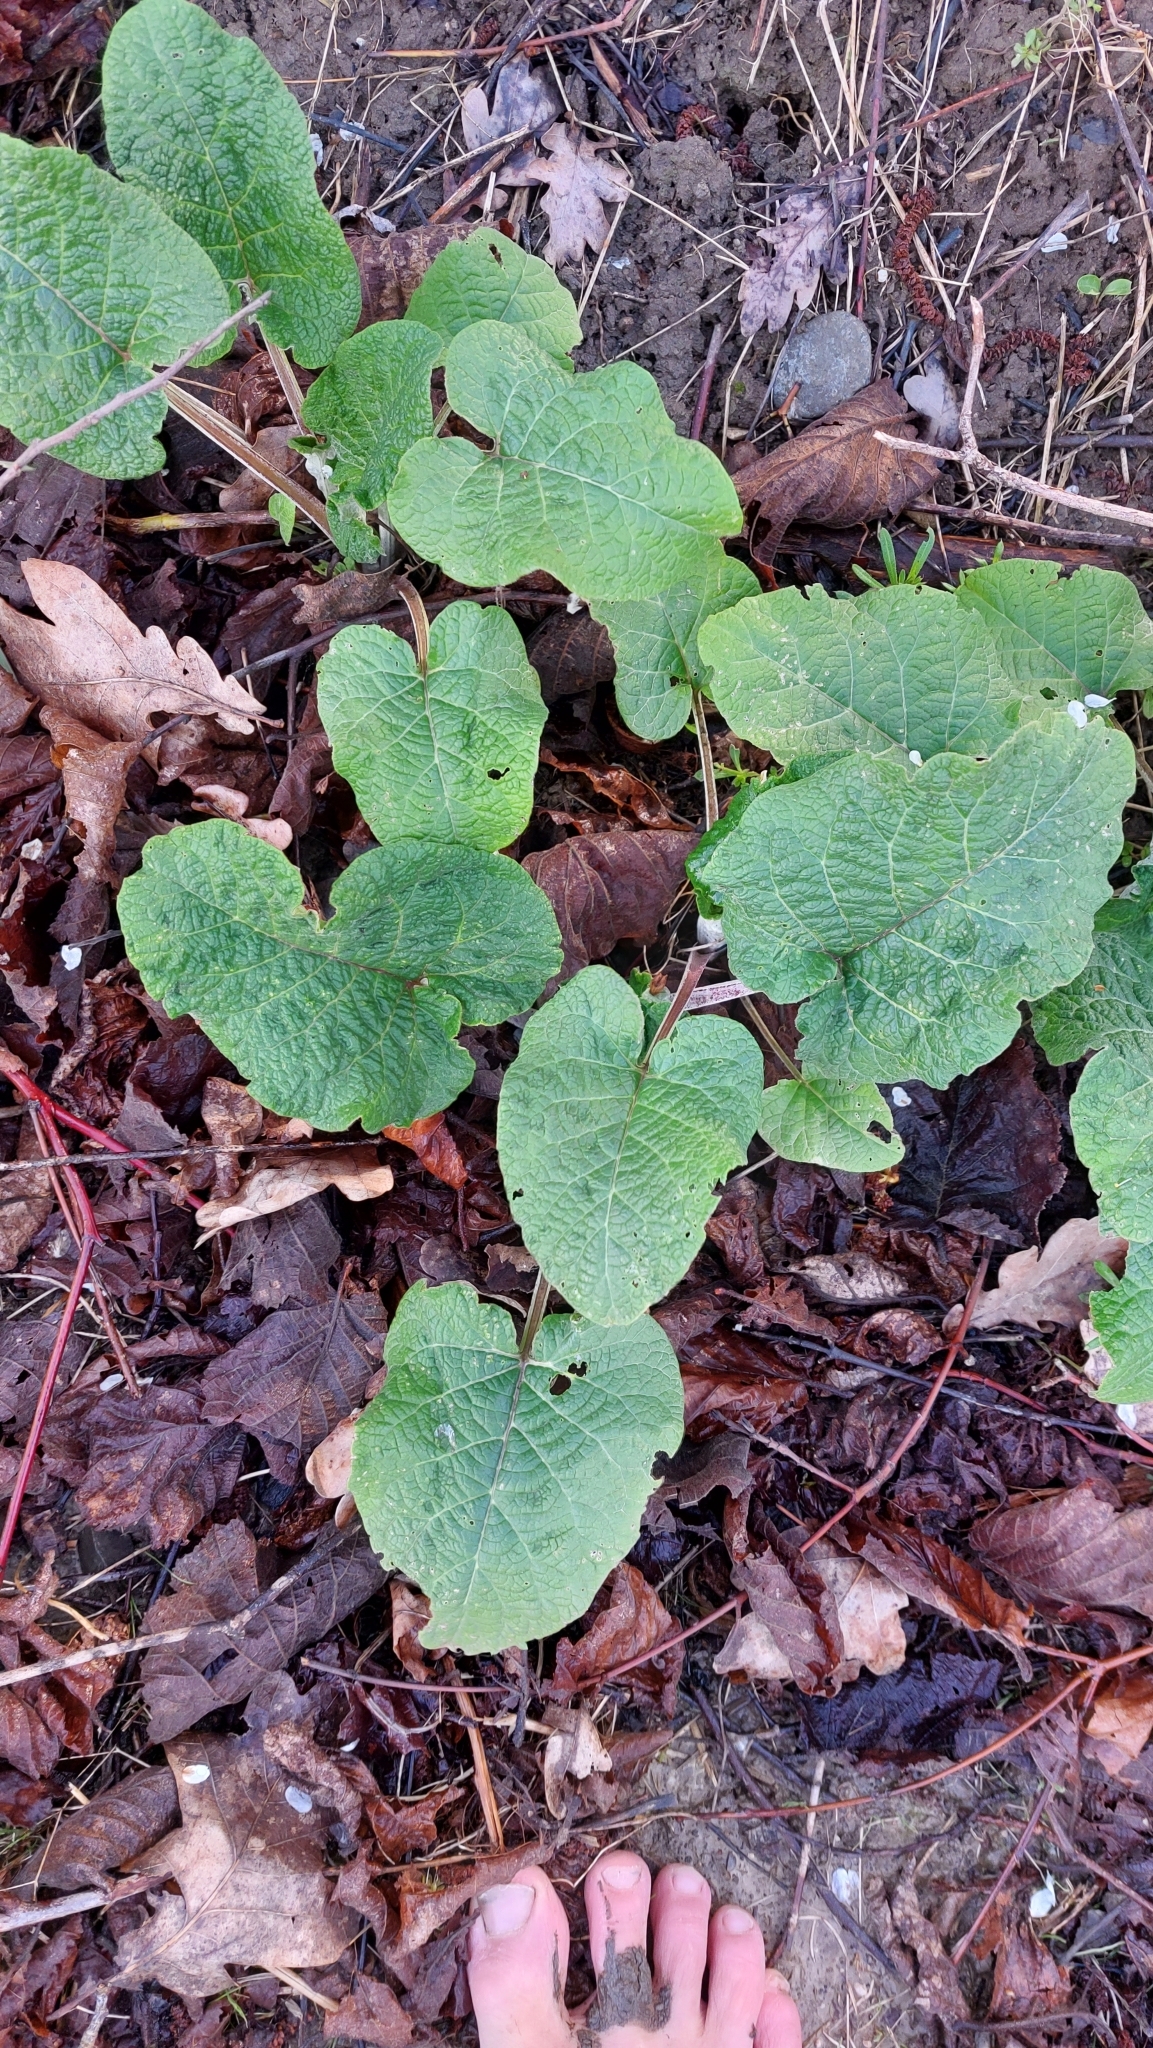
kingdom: Plantae
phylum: Tracheophyta
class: Magnoliopsida
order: Asterales
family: Asteraceae
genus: Arctium
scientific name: Arctium
